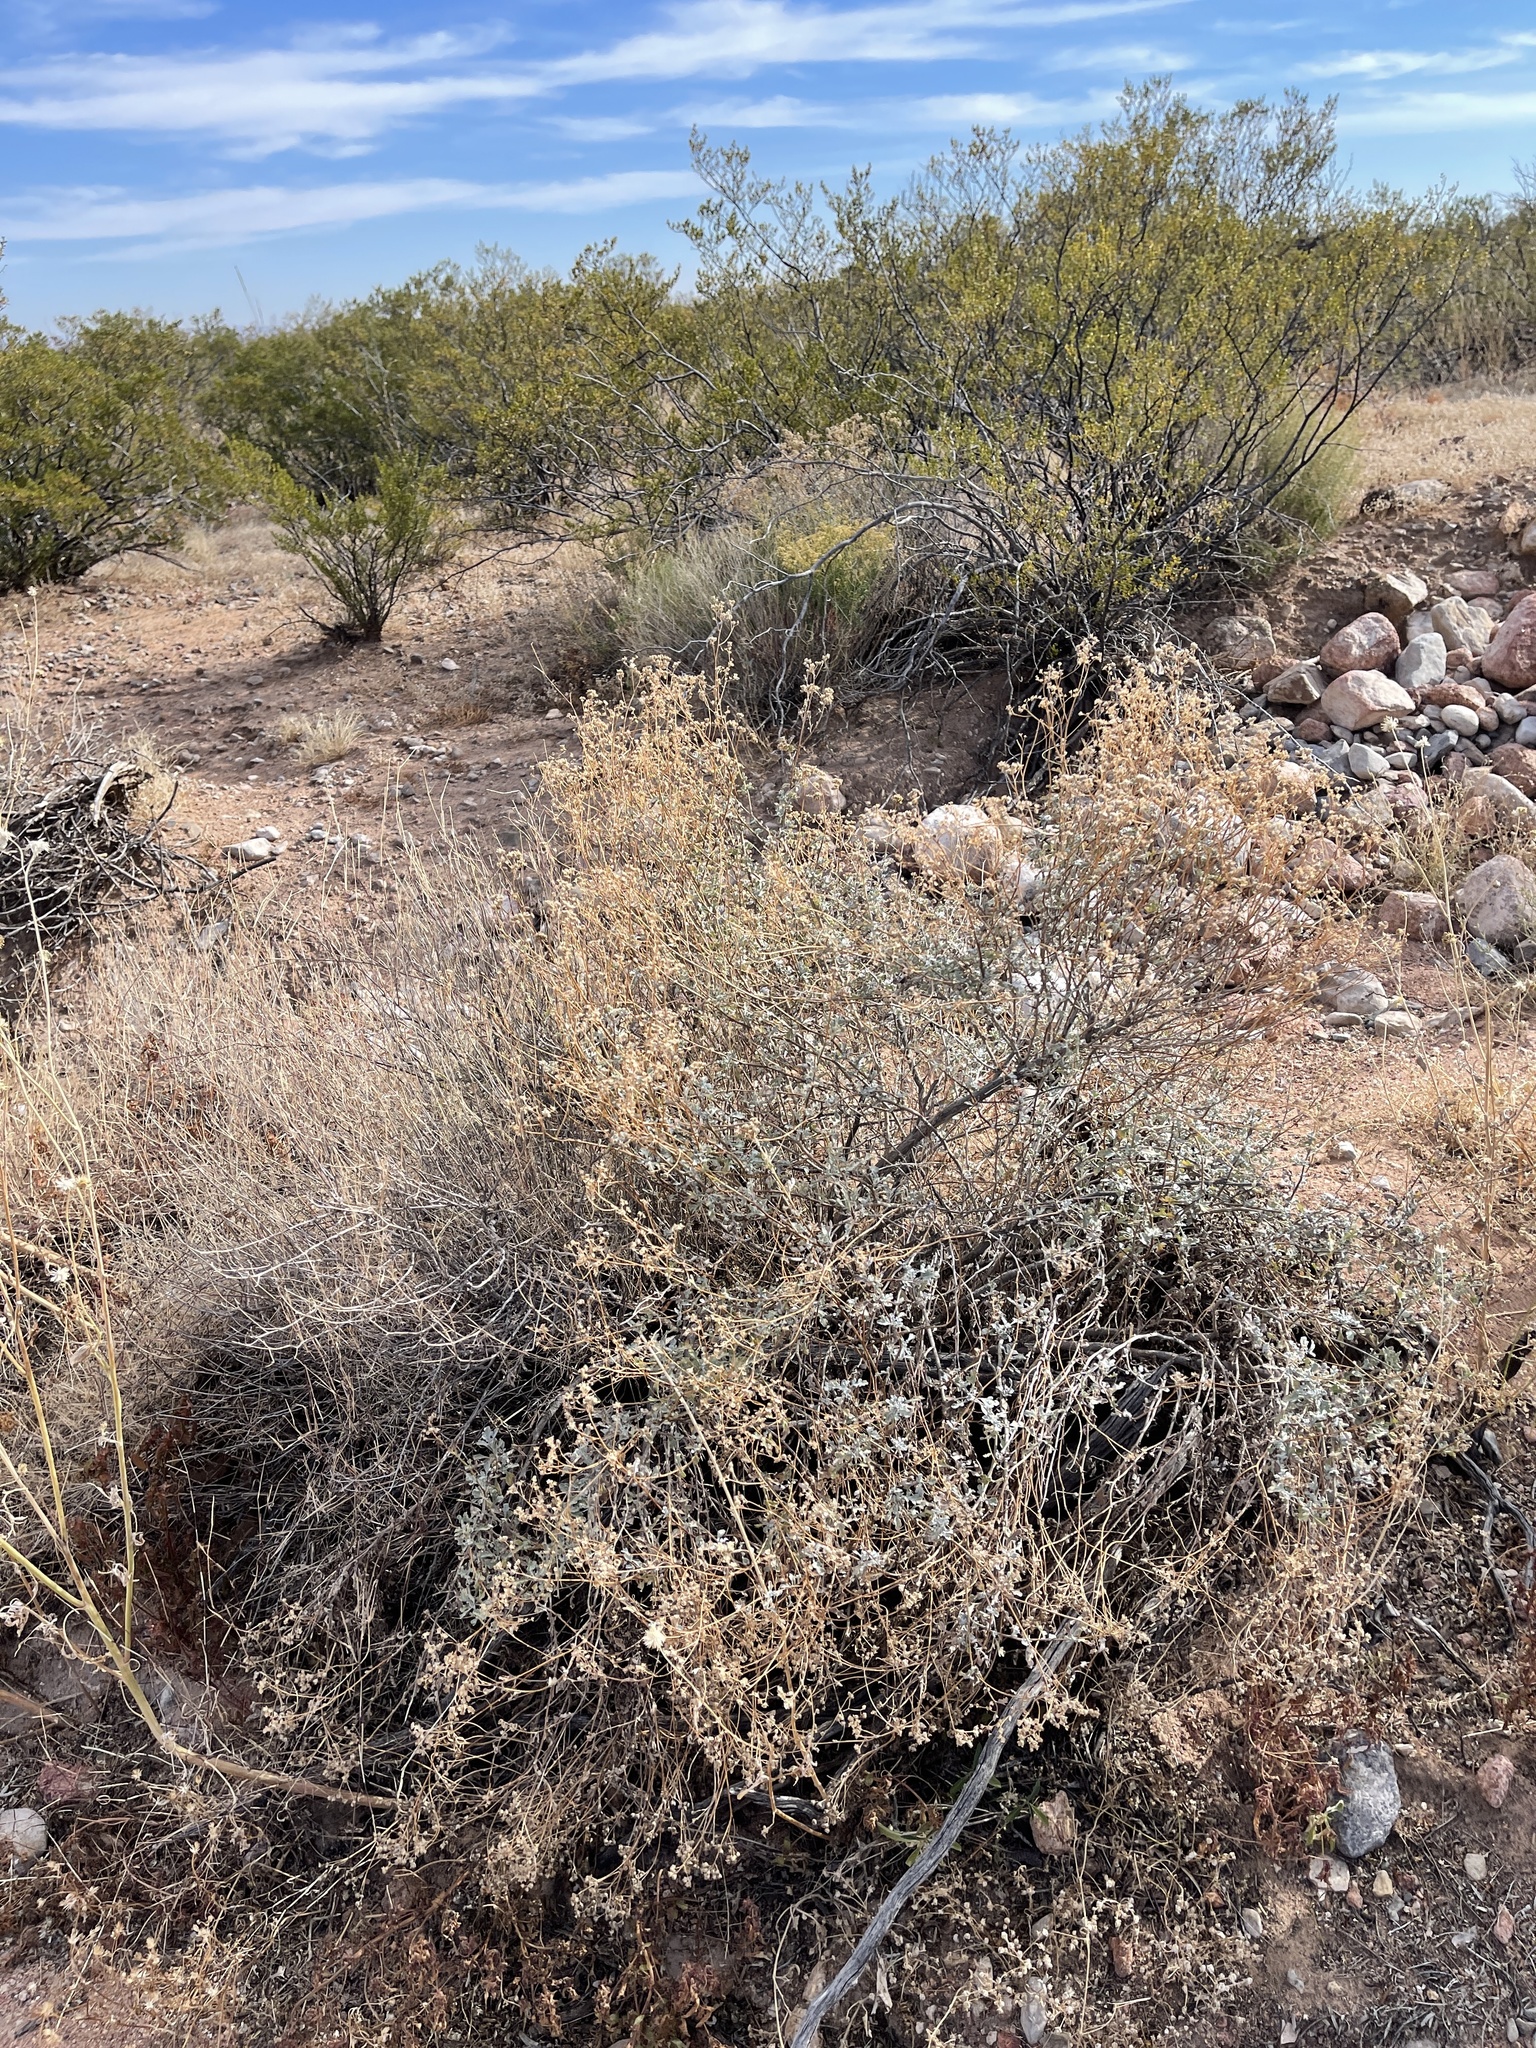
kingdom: Plantae
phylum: Tracheophyta
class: Magnoliopsida
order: Asterales
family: Asteraceae
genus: Parthenium
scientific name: Parthenium incanum
